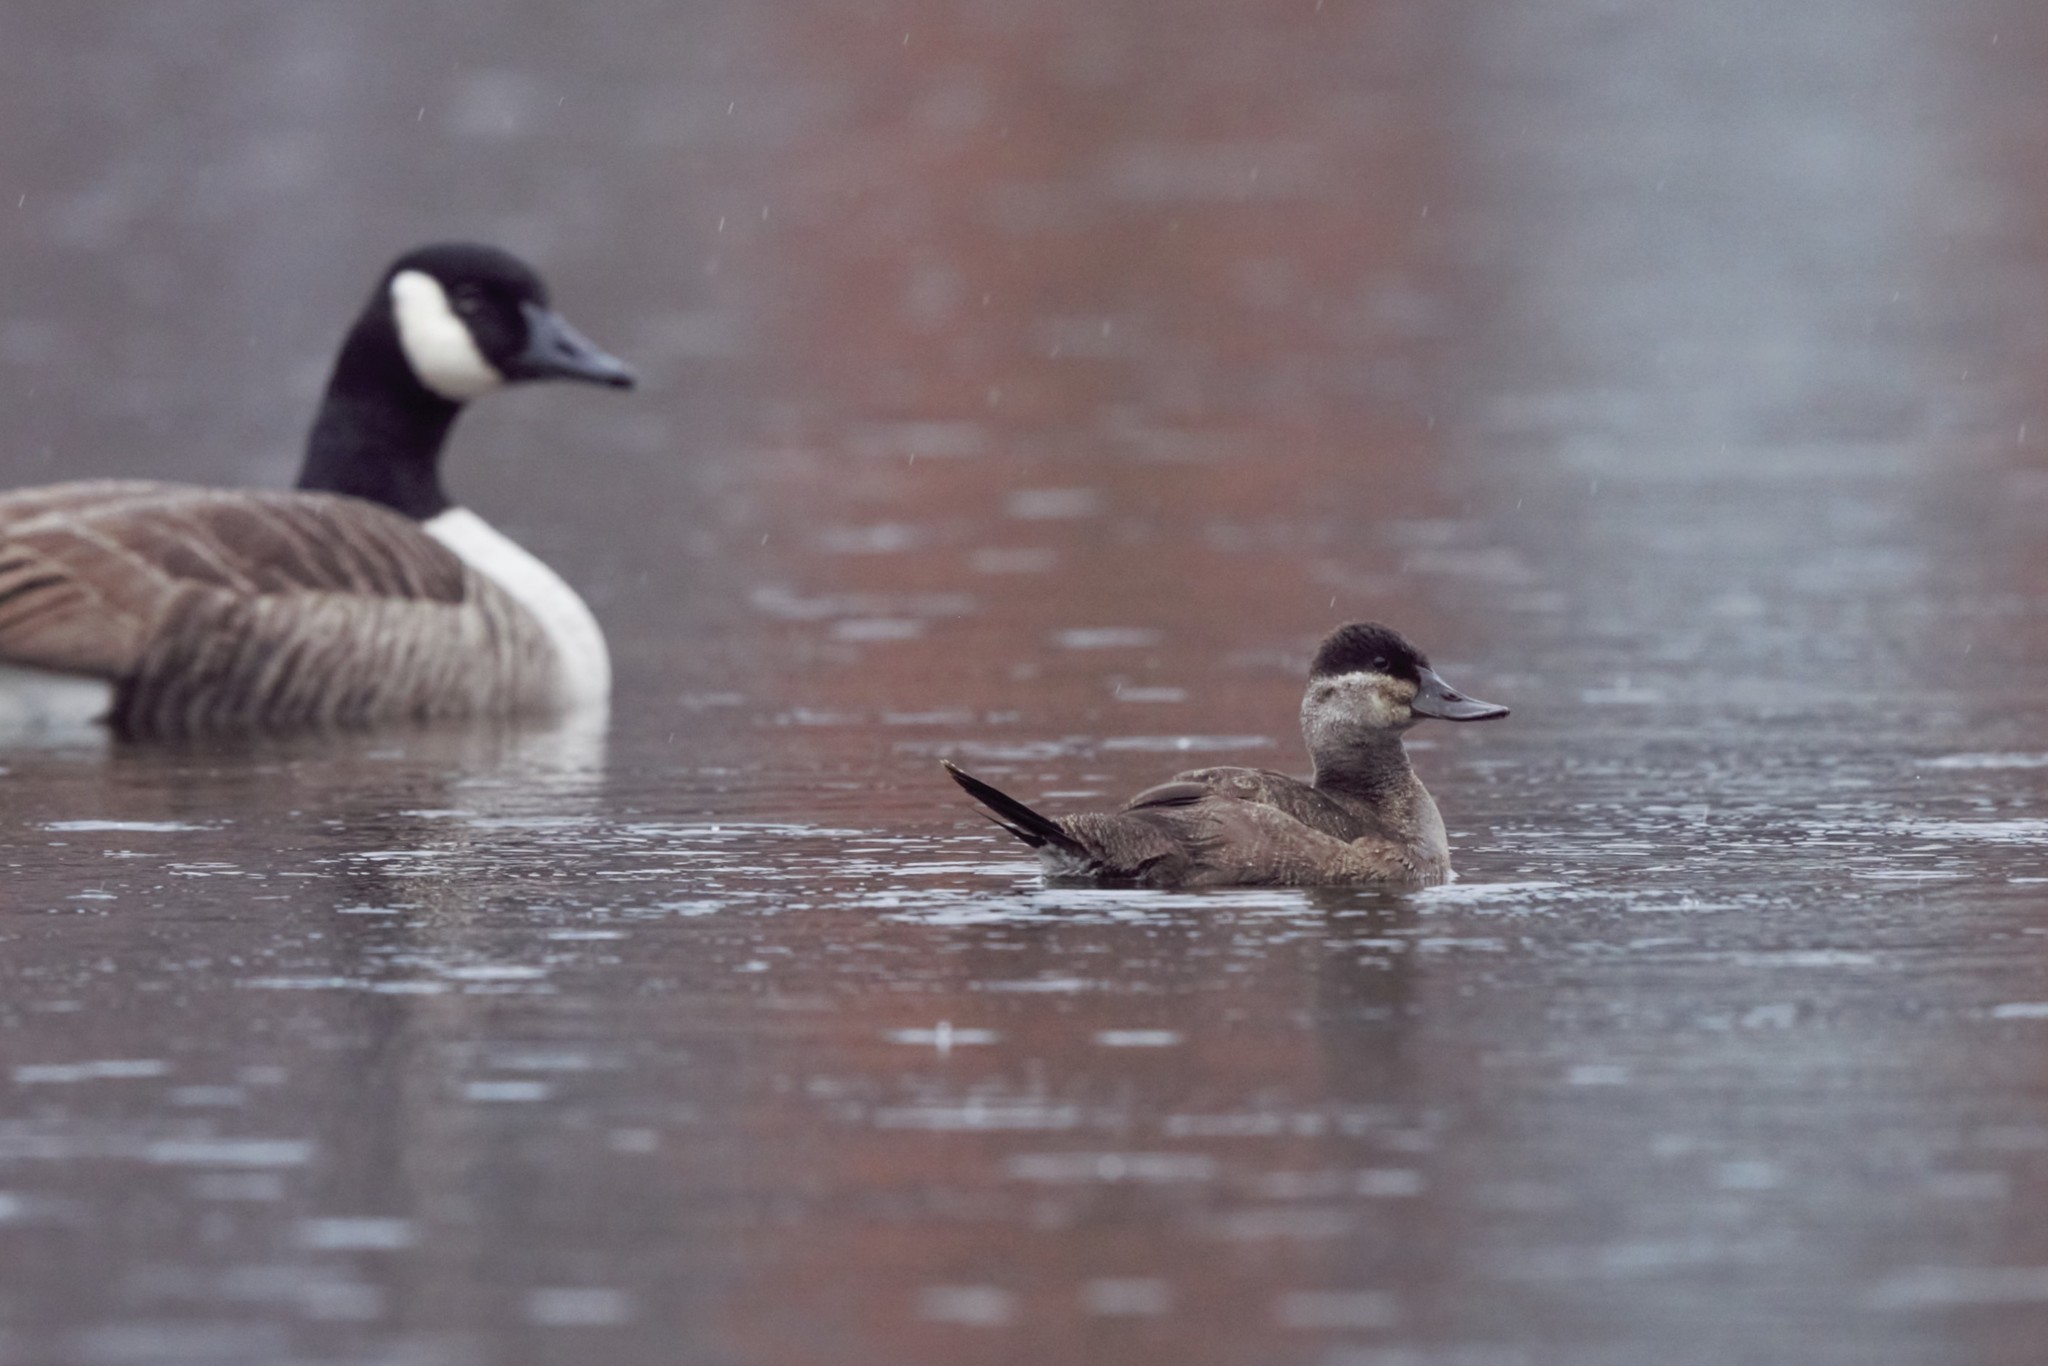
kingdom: Animalia
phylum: Chordata
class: Aves
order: Anseriformes
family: Anatidae
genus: Oxyura
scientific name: Oxyura jamaicensis
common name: Ruddy duck
